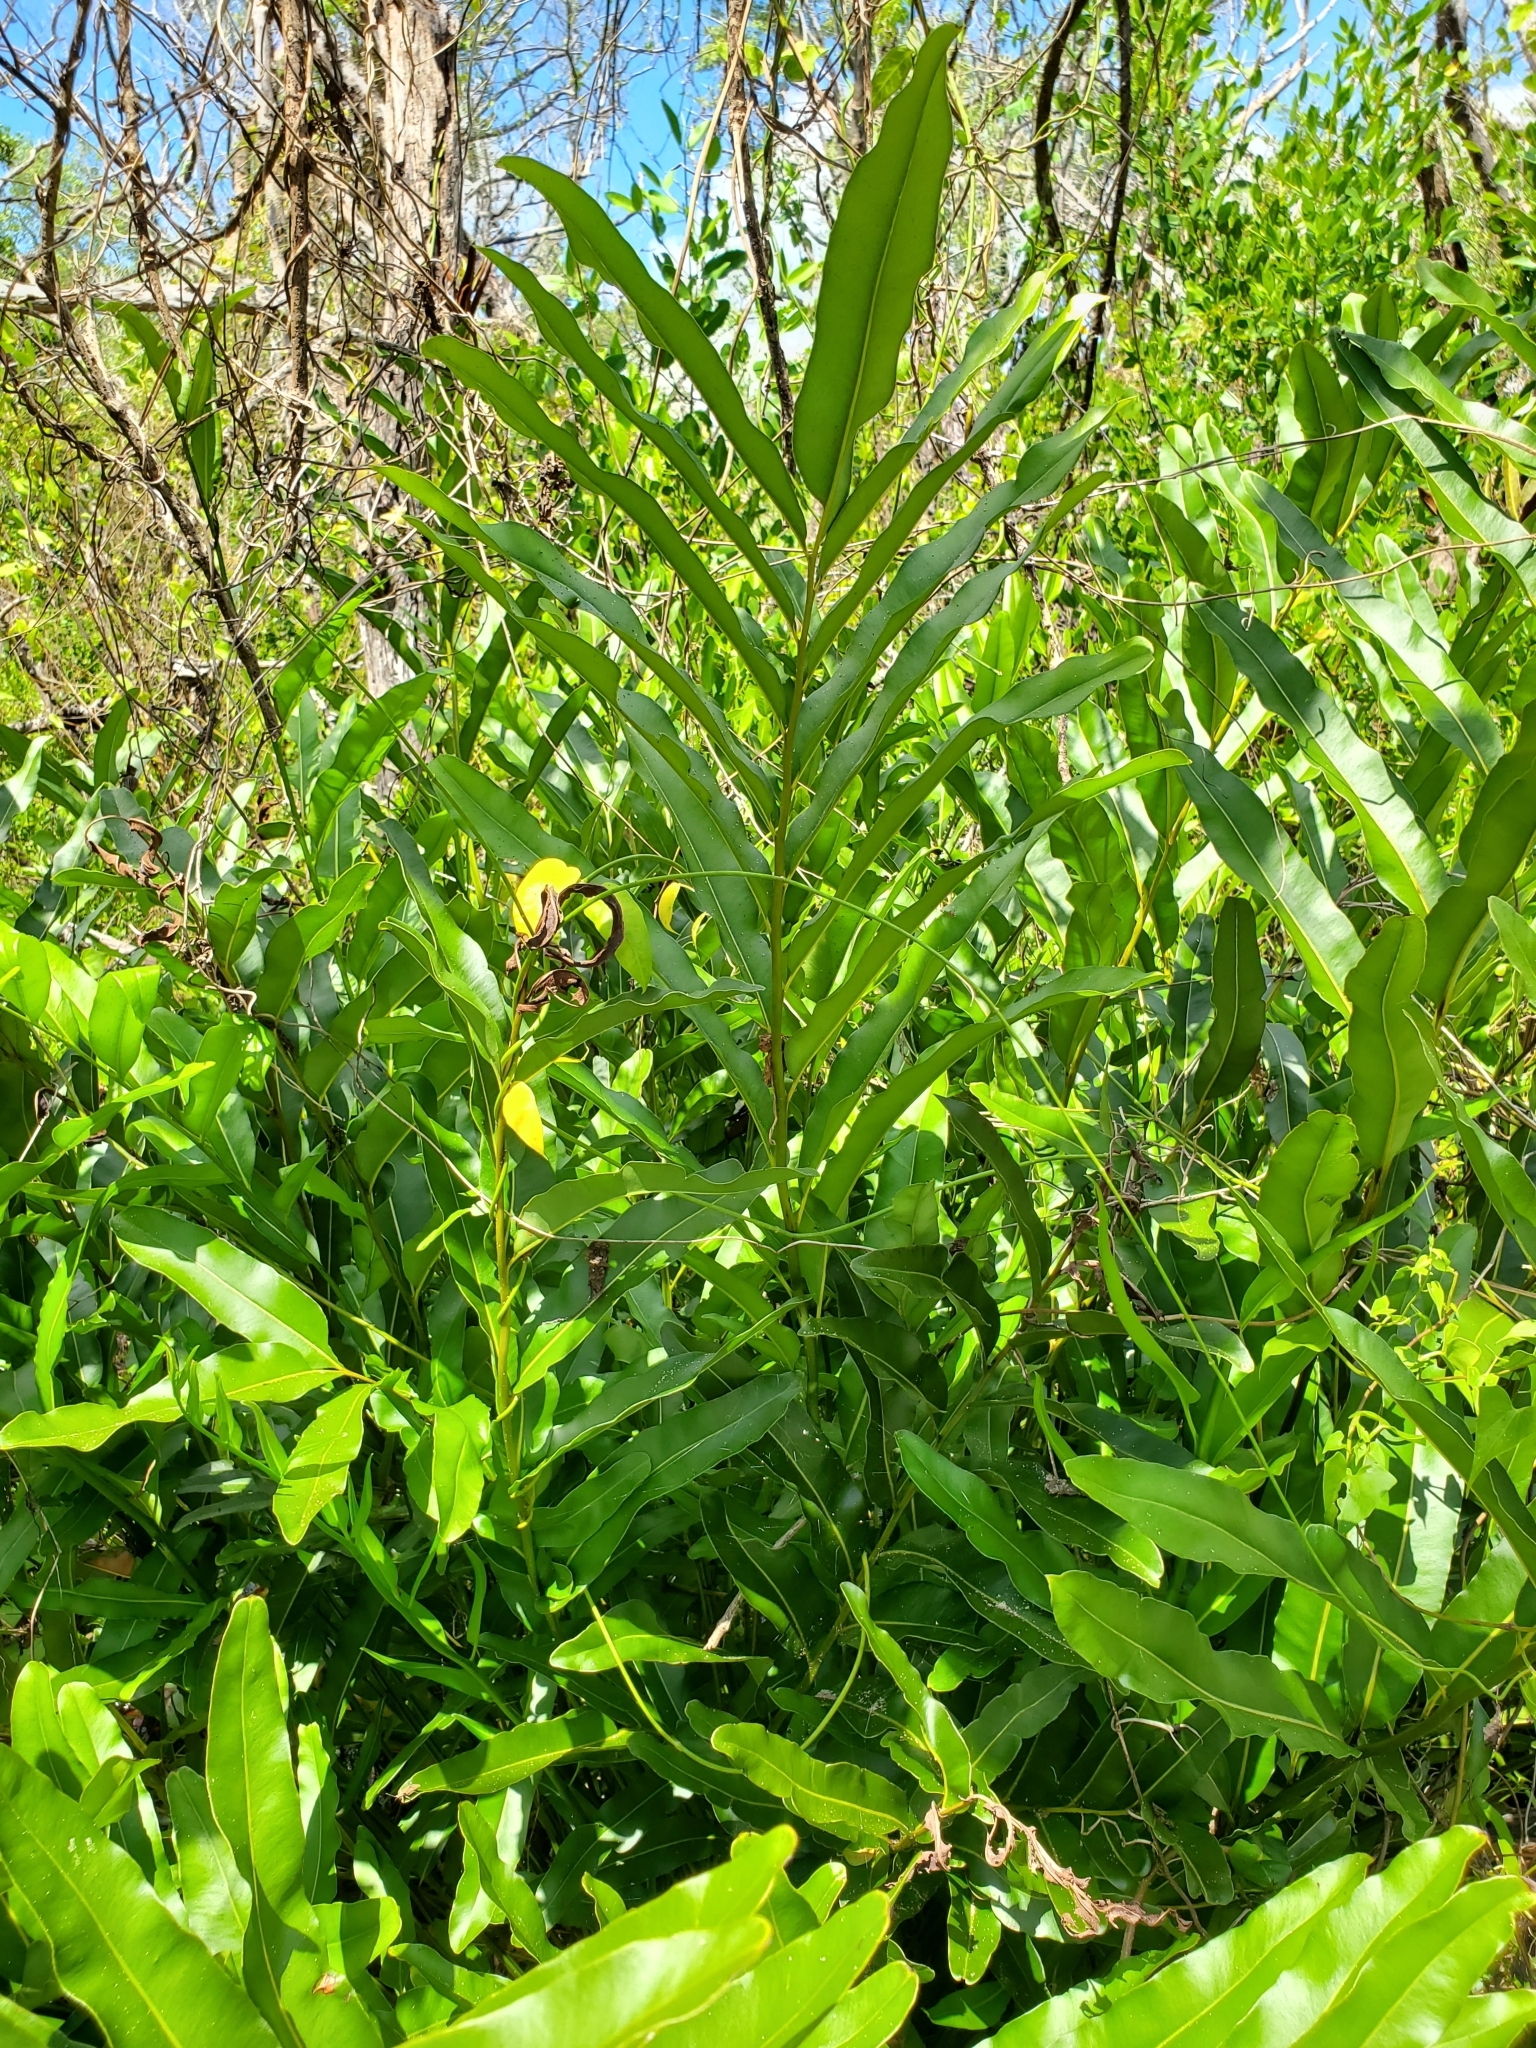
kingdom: Plantae
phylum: Tracheophyta
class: Polypodiopsida
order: Polypodiales
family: Pteridaceae
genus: Acrostichum
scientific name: Acrostichum danaeifolium
